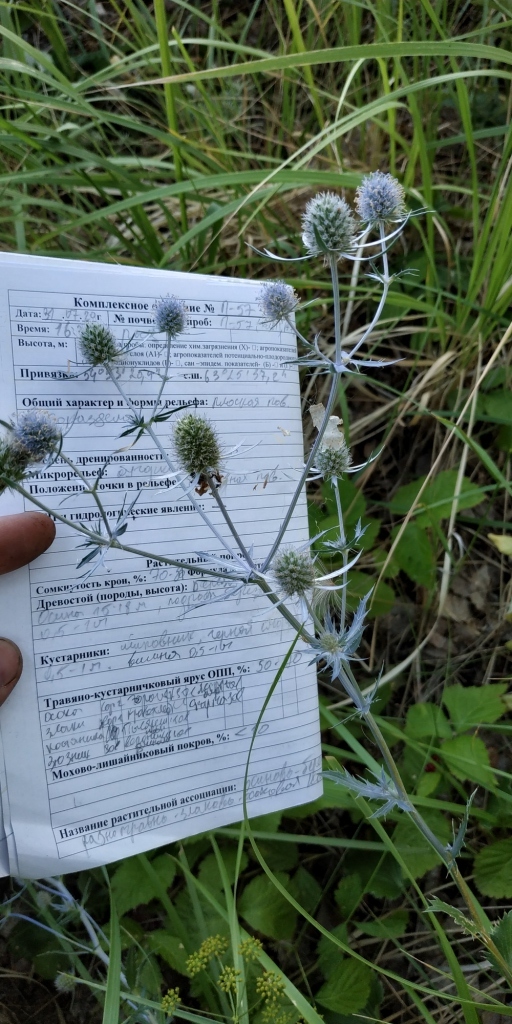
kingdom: Plantae
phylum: Tracheophyta
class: Magnoliopsida
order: Apiales
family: Apiaceae
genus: Eryngium
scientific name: Eryngium planum
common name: Blue eryngo
